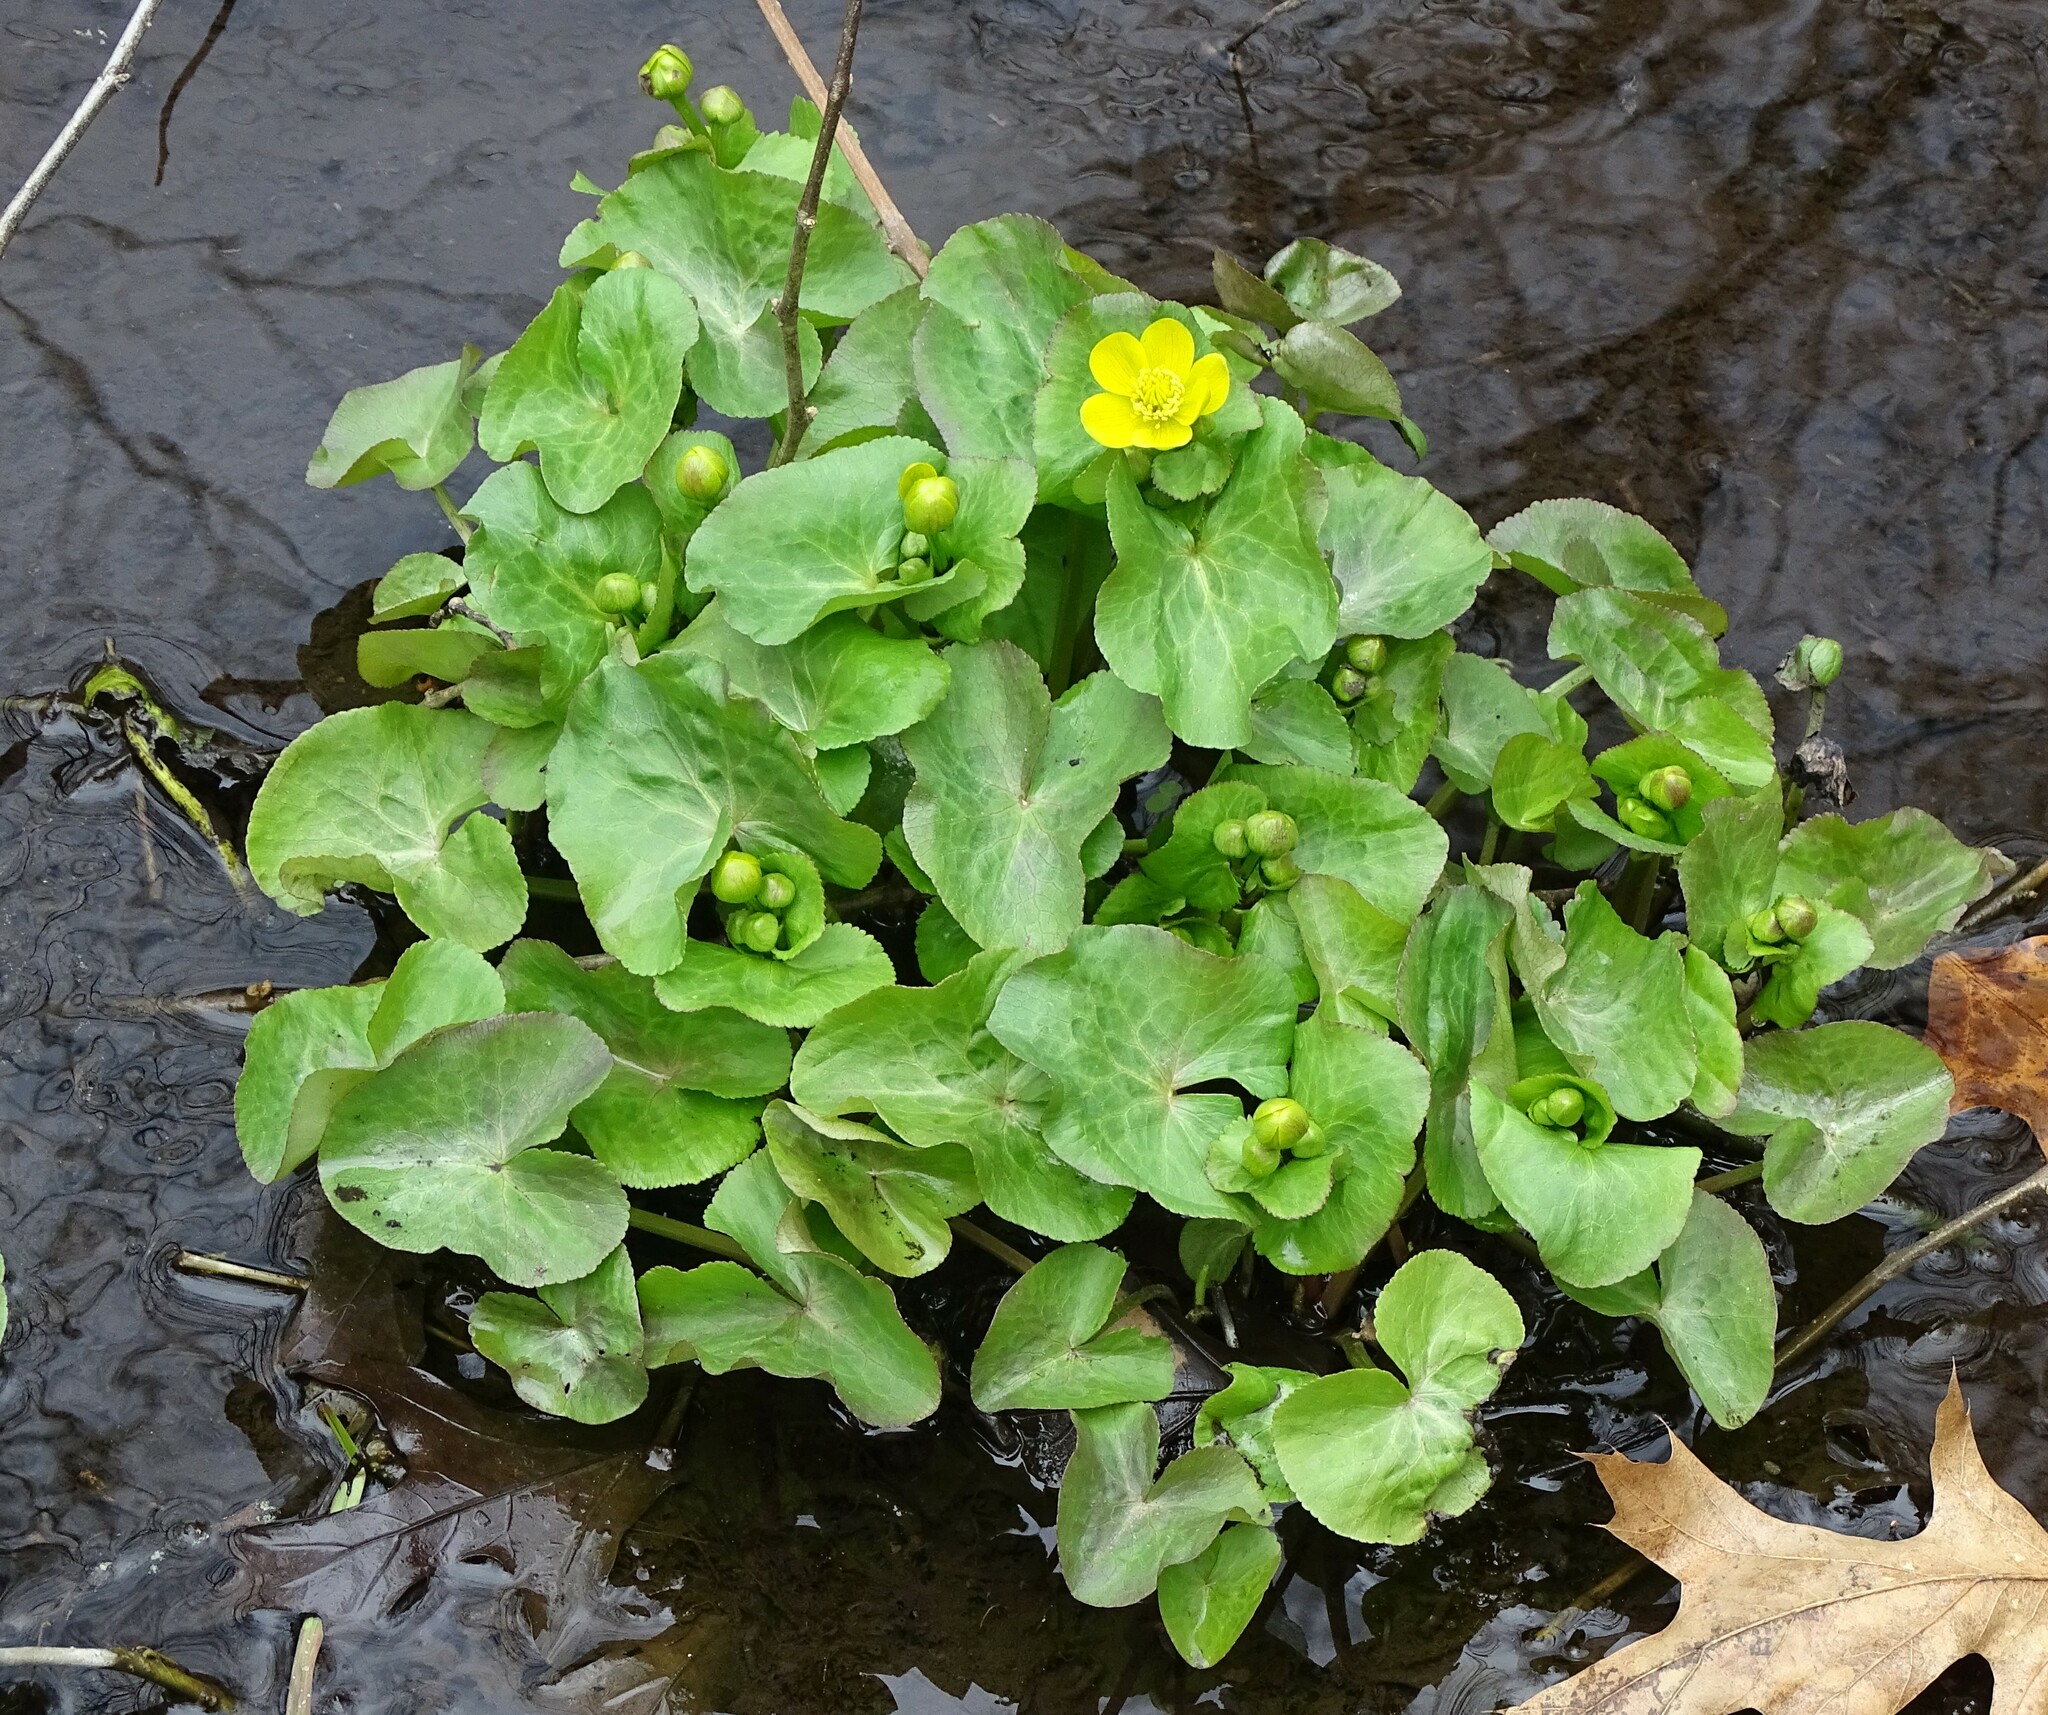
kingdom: Plantae
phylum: Tracheophyta
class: Magnoliopsida
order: Ranunculales
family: Ranunculaceae
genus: Caltha
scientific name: Caltha palustris
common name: Marsh marigold
